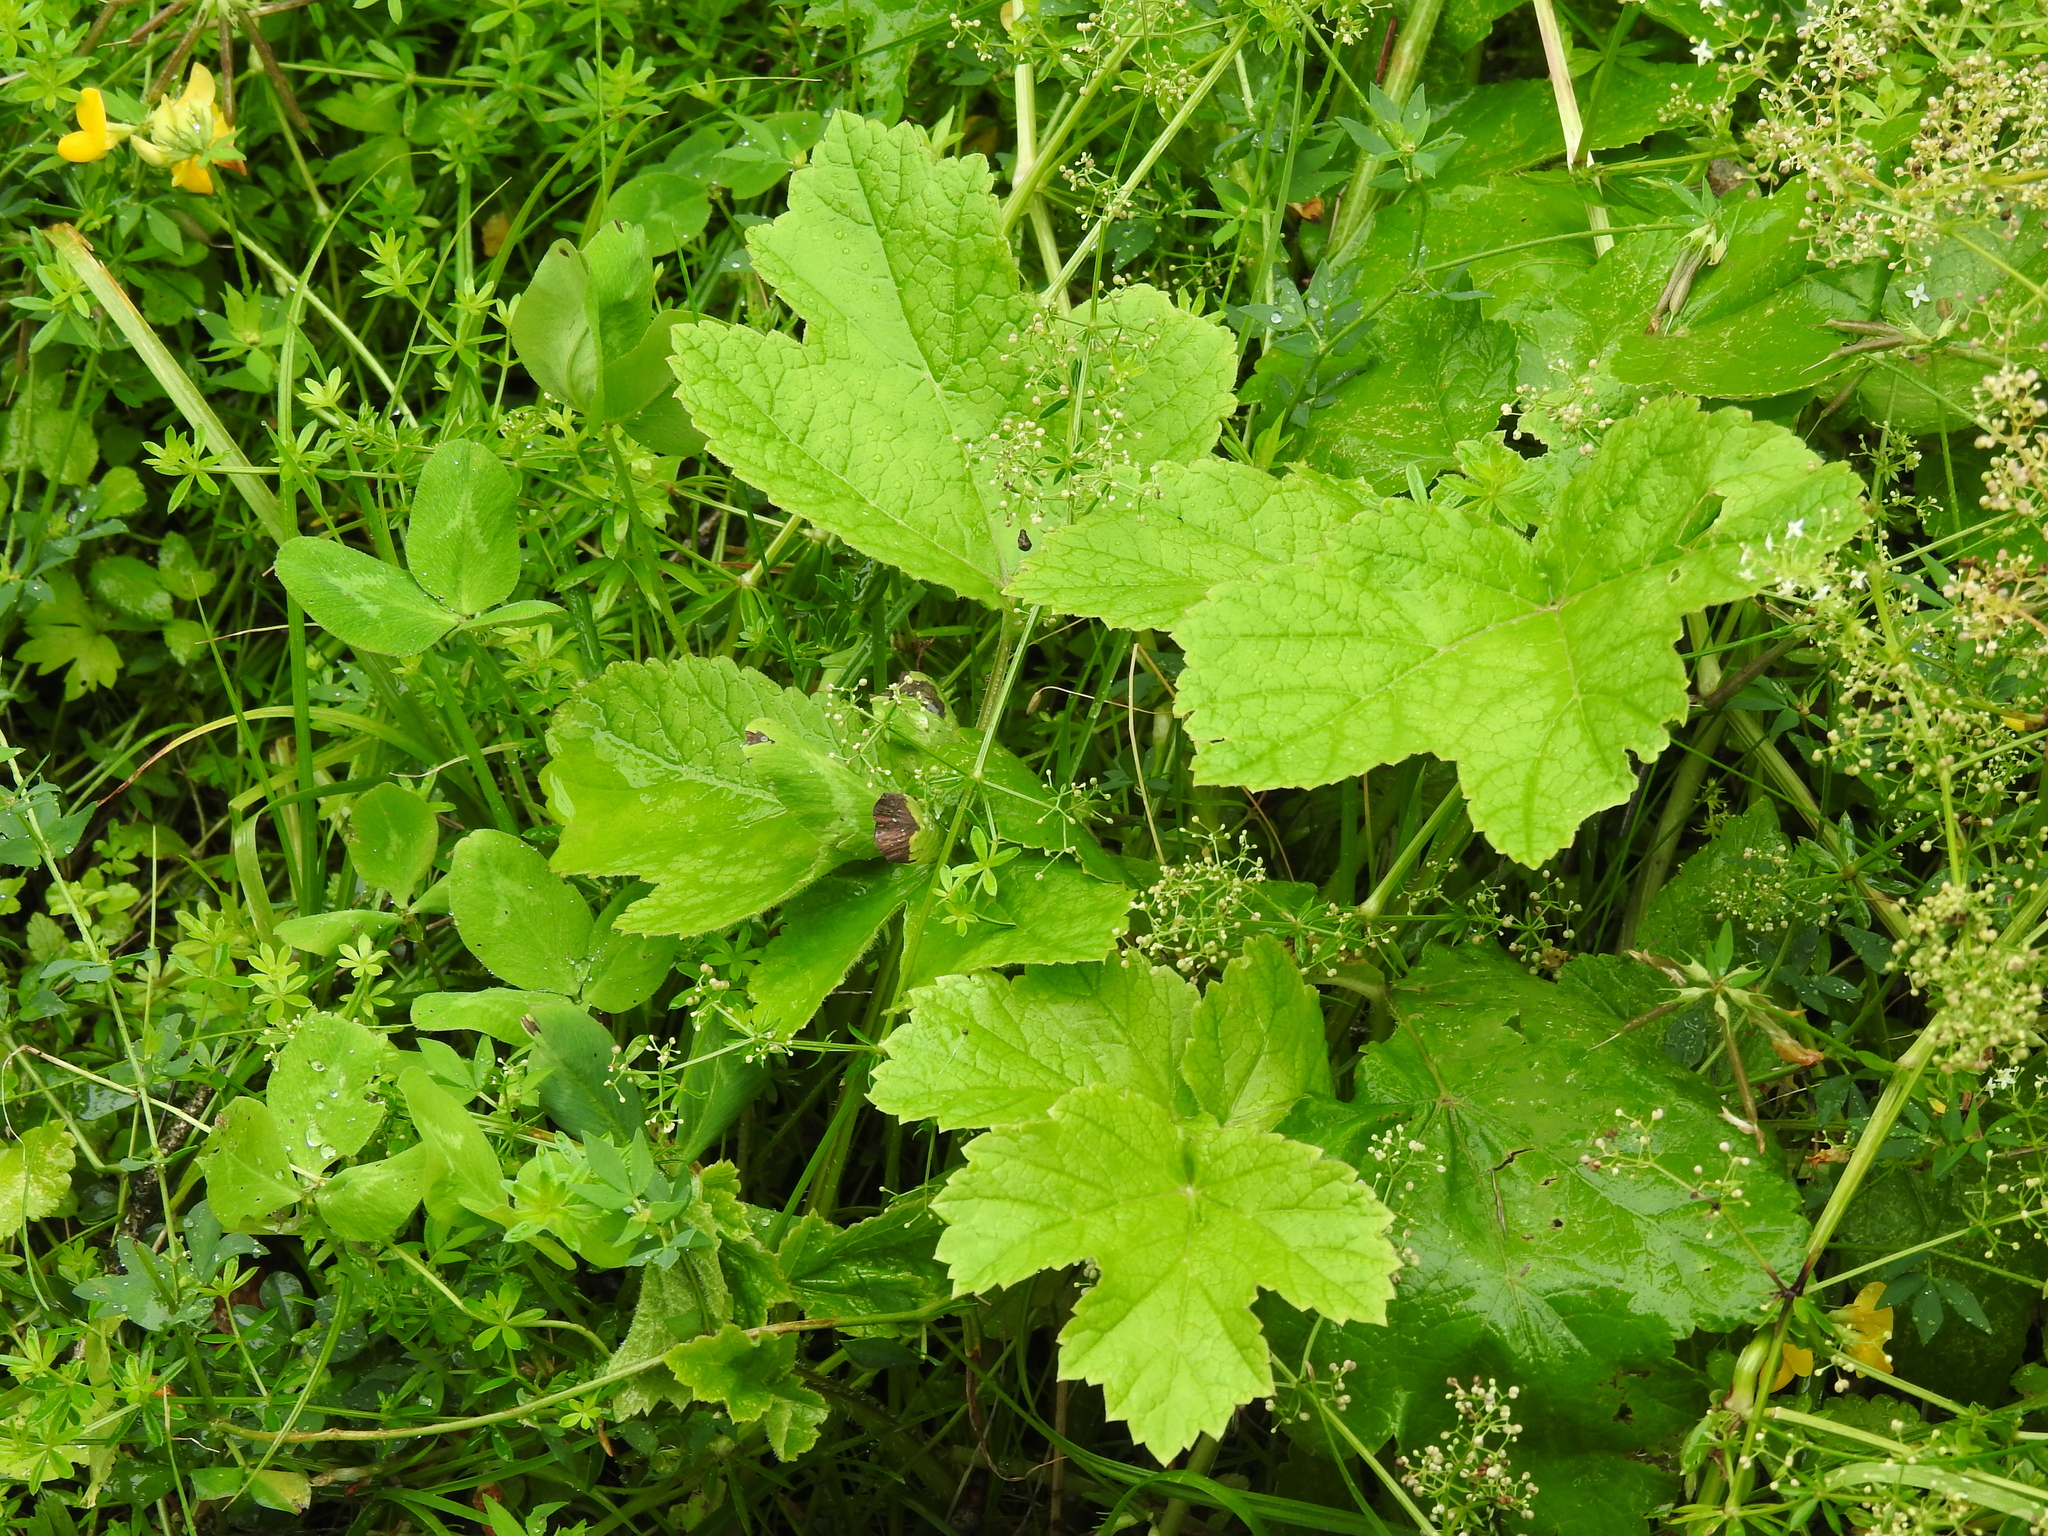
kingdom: Plantae
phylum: Tracheophyta
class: Magnoliopsida
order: Apiales
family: Apiaceae
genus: Heracleum
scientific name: Heracleum sphondylium
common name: Hogweed
